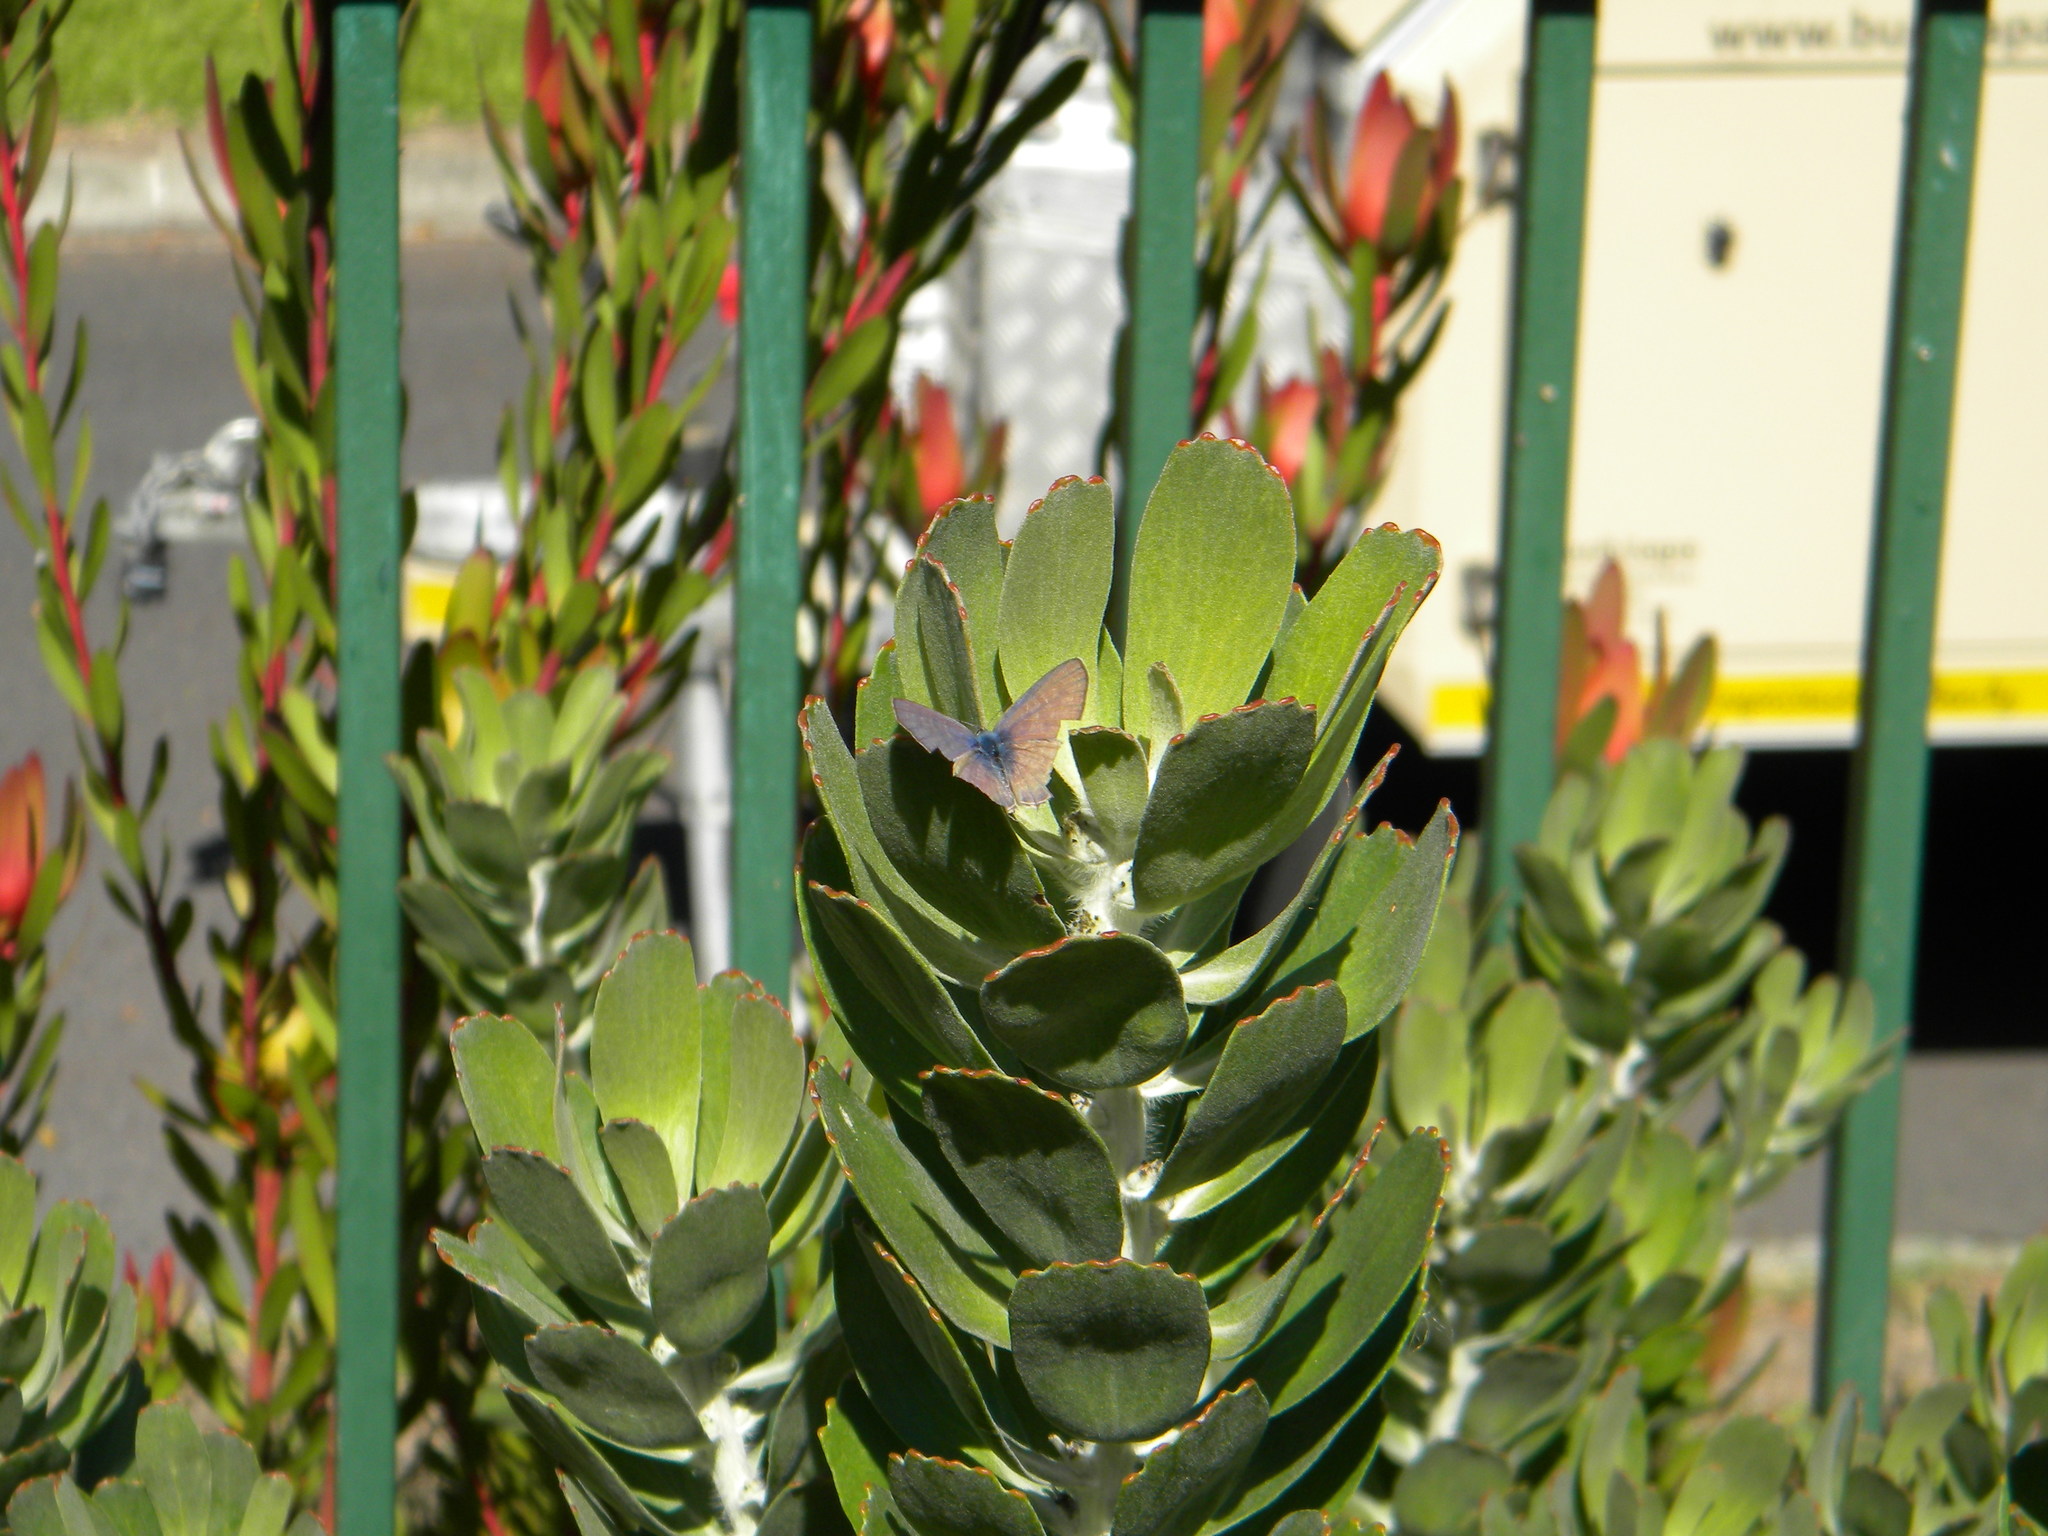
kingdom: Animalia
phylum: Arthropoda
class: Insecta
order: Lepidoptera
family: Lycaenidae
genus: Leptotes
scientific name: Leptotes
